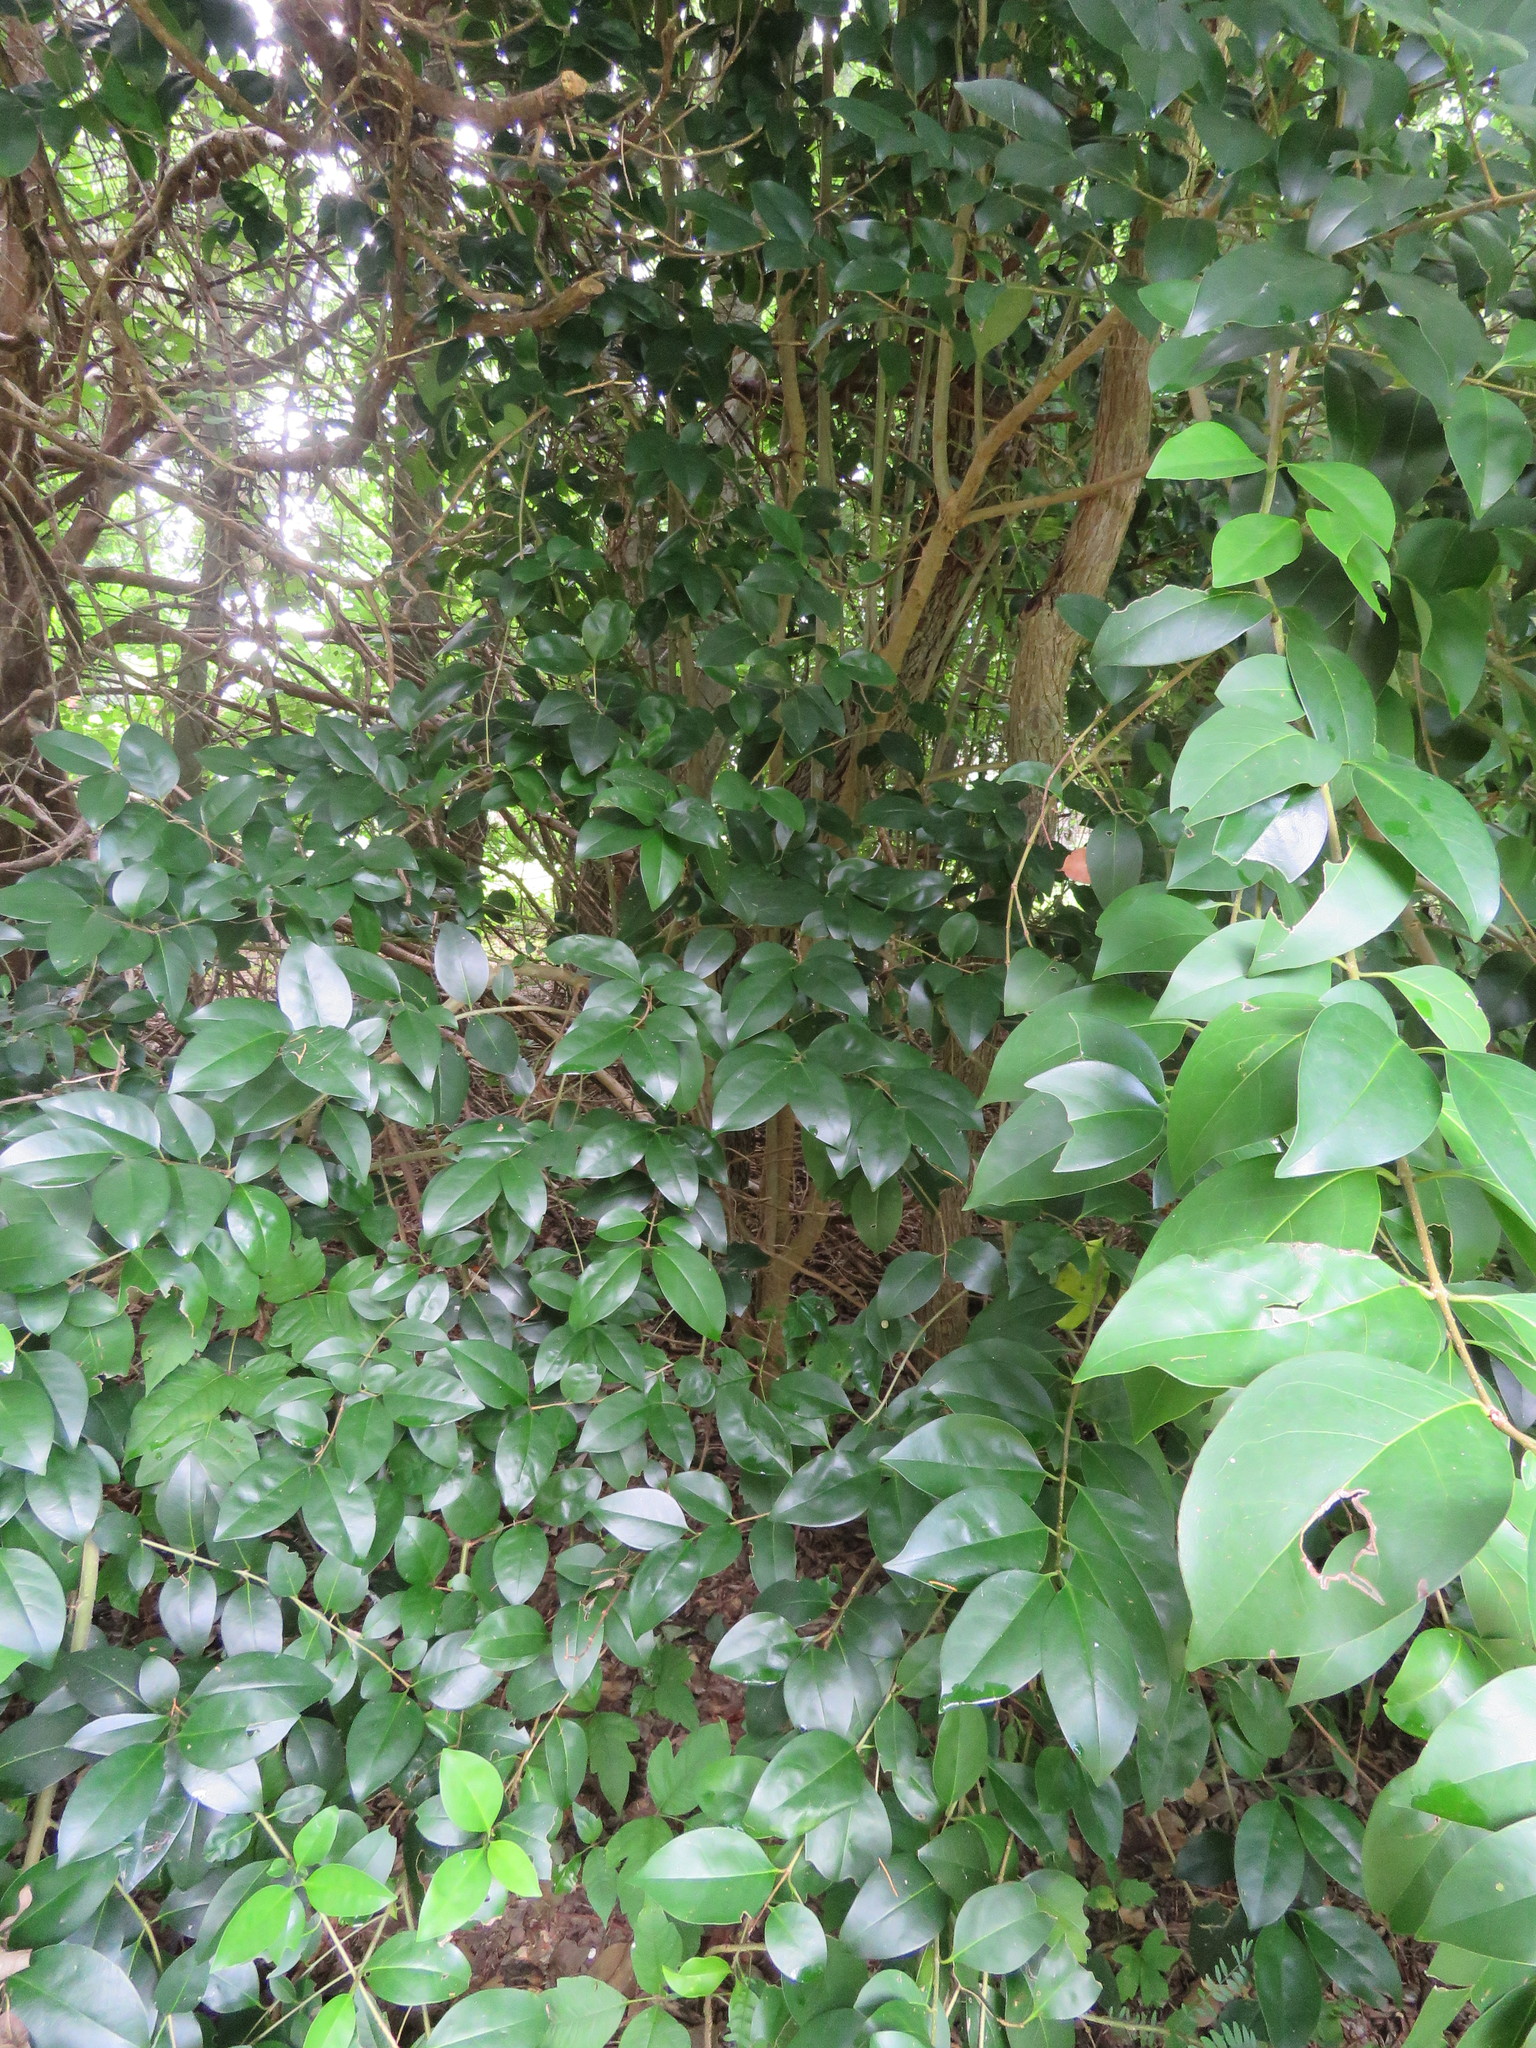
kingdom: Plantae
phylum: Tracheophyta
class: Magnoliopsida
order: Lamiales
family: Oleaceae
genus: Ligustrum
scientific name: Ligustrum lucidum
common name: Glossy privet
